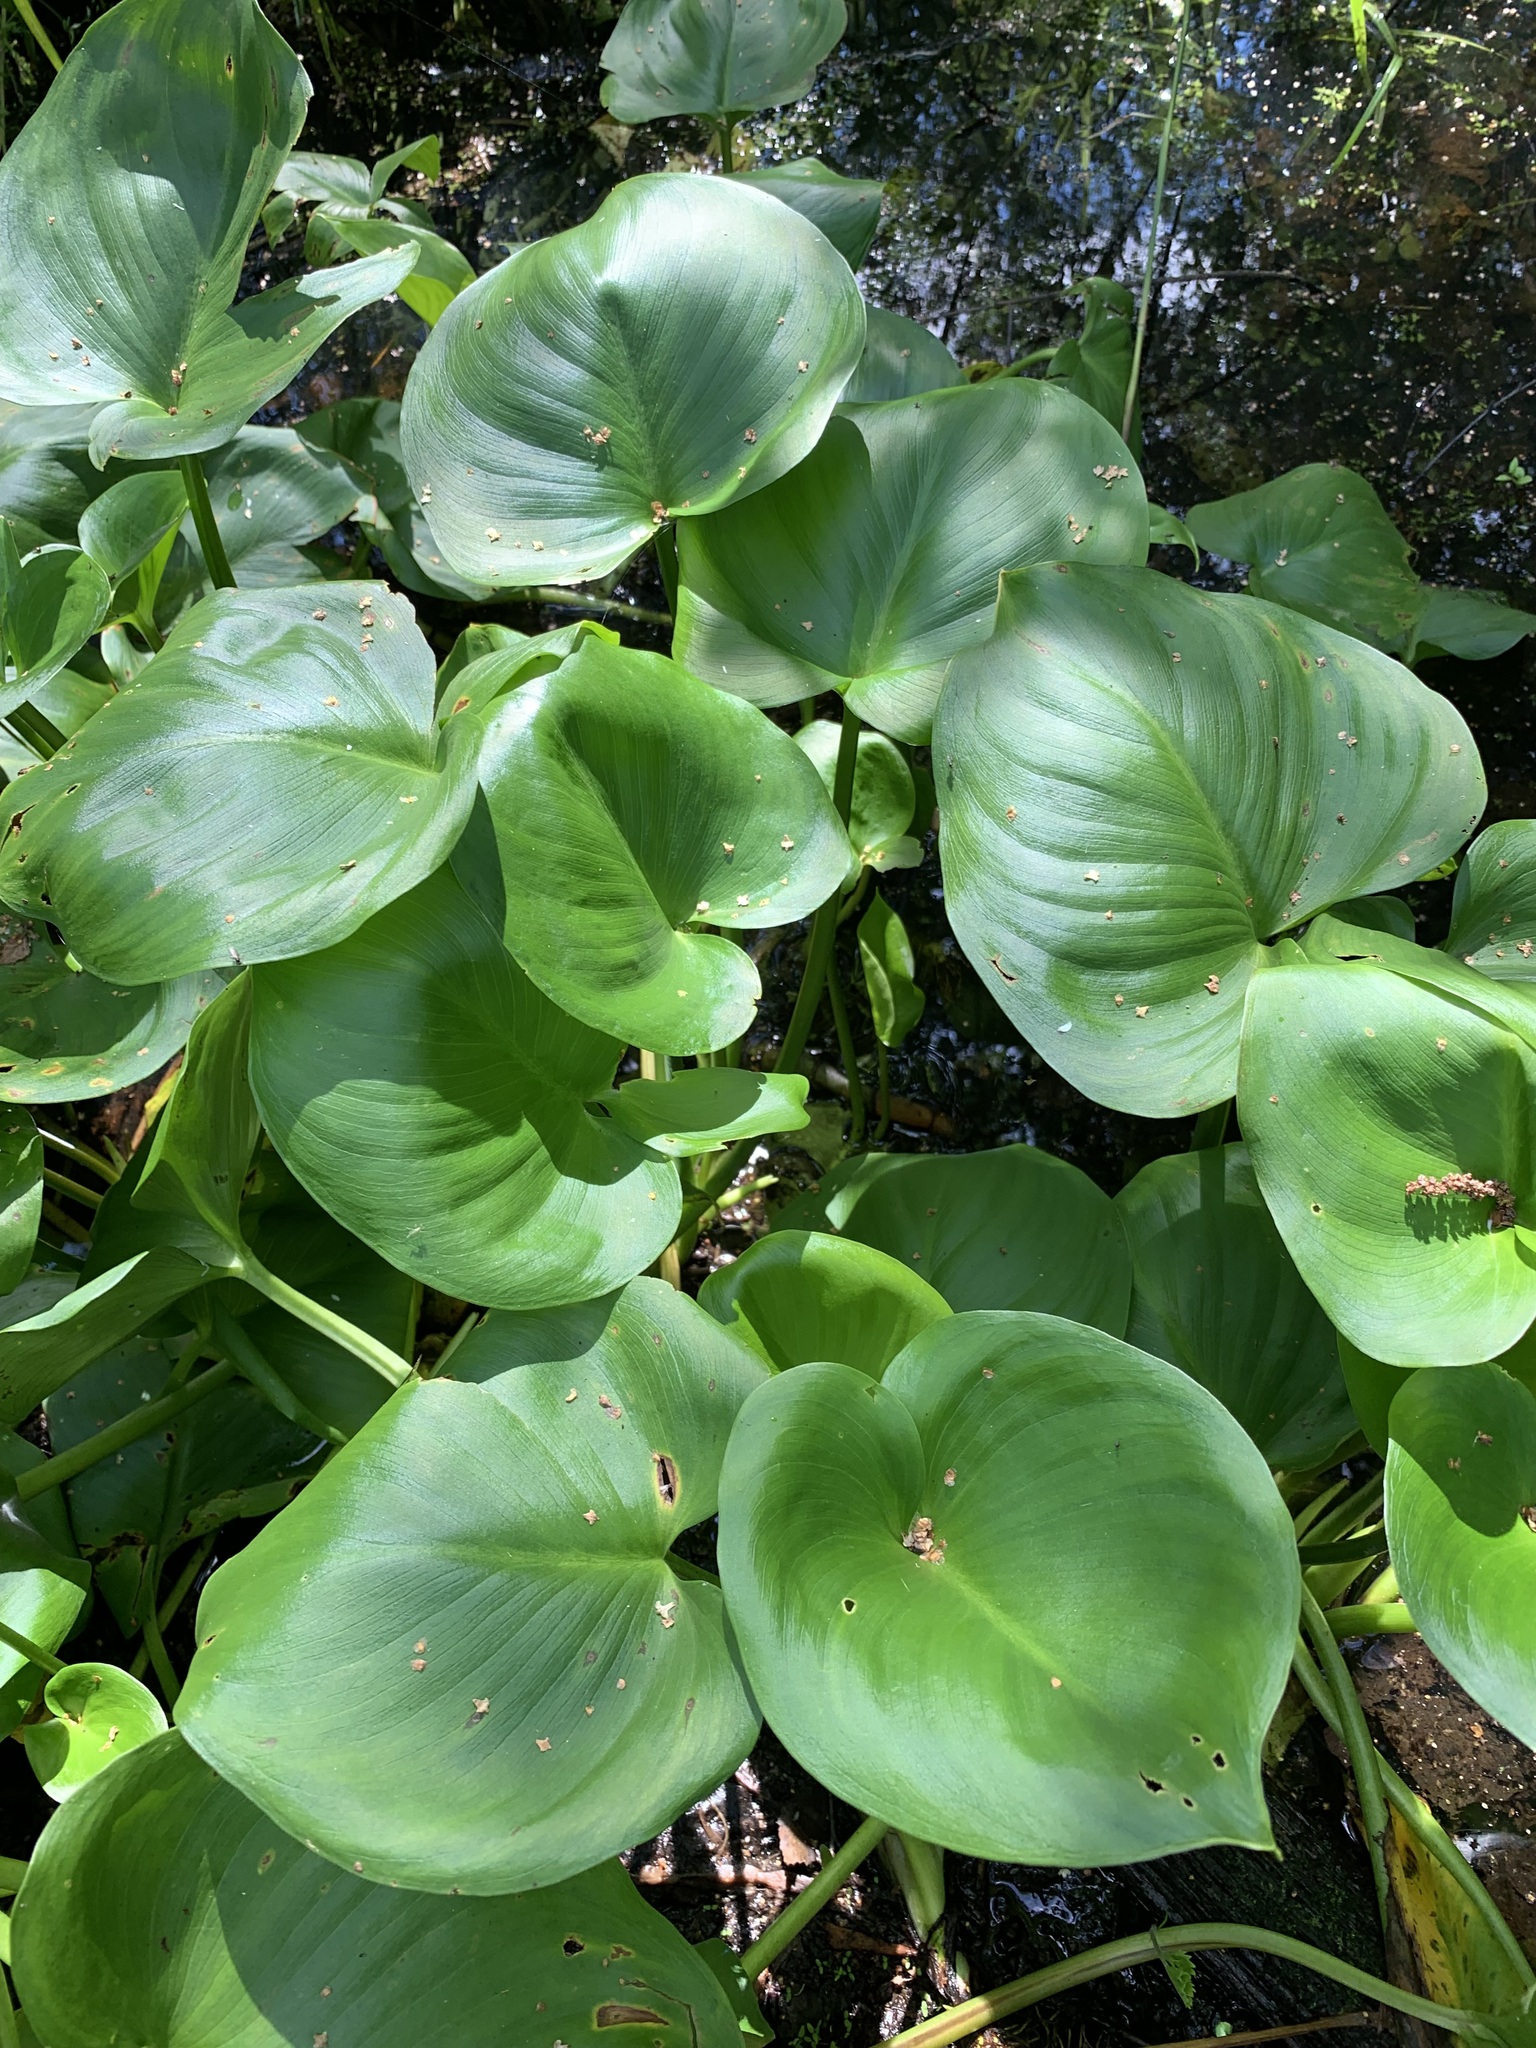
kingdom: Plantae
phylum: Tracheophyta
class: Liliopsida
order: Alismatales
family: Araceae
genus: Calla
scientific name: Calla palustris
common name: Bog arum
